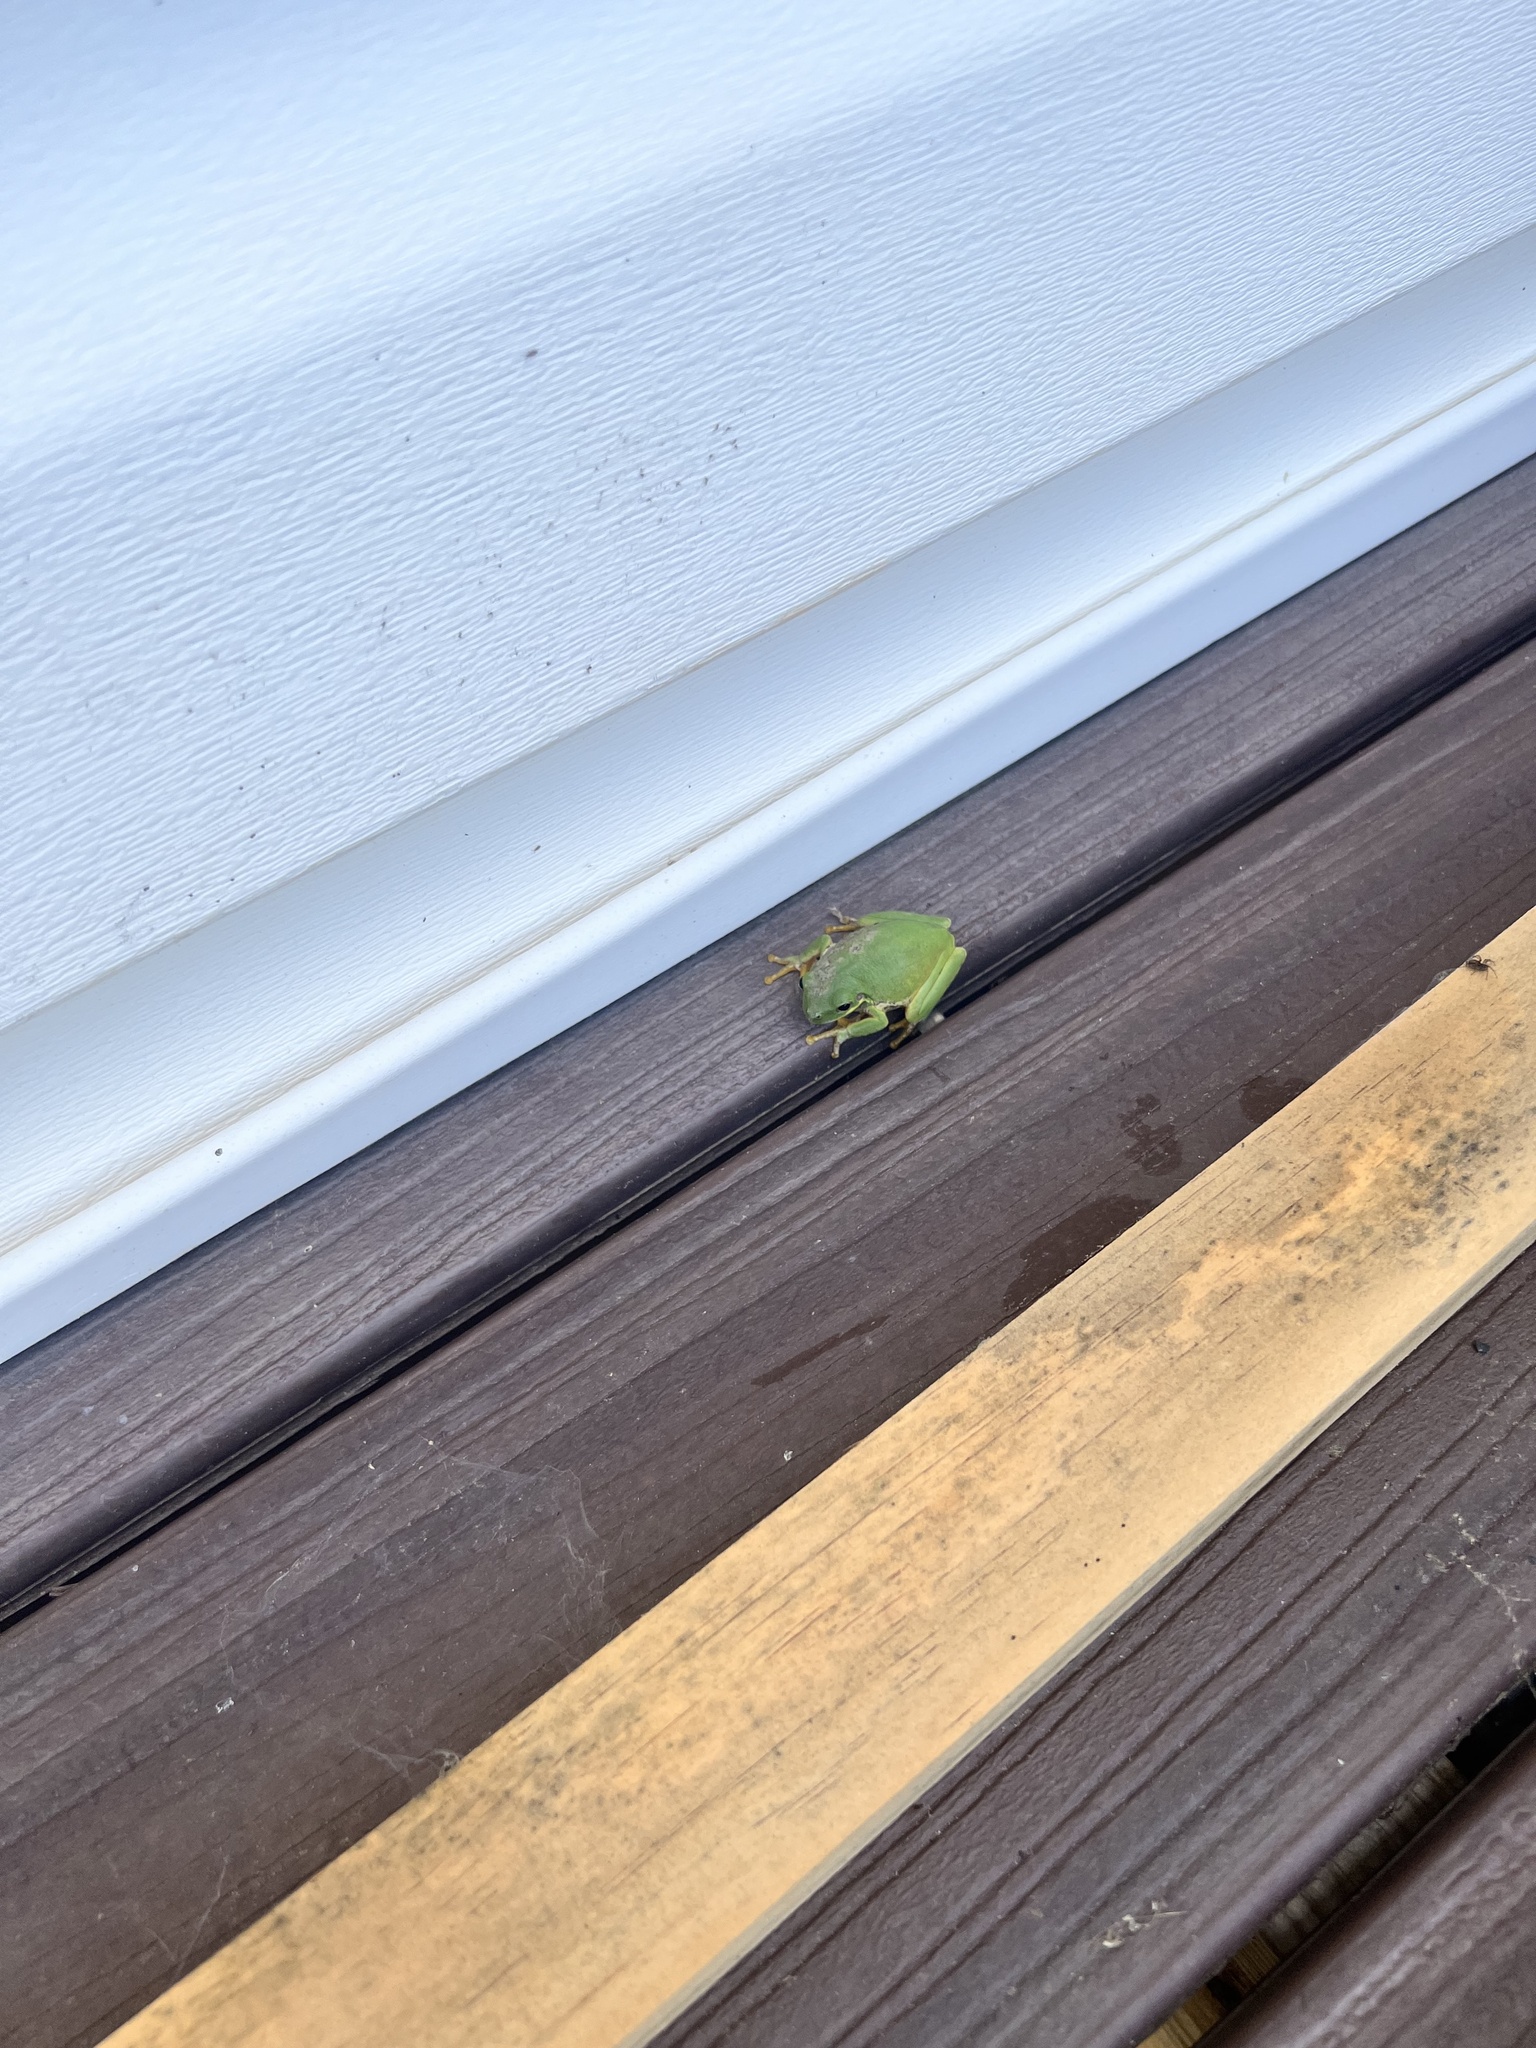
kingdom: Animalia
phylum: Chordata
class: Amphibia
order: Anura
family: Hylidae
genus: Dryophytes
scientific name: Dryophytes squirellus
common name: Squirrel treefrog
